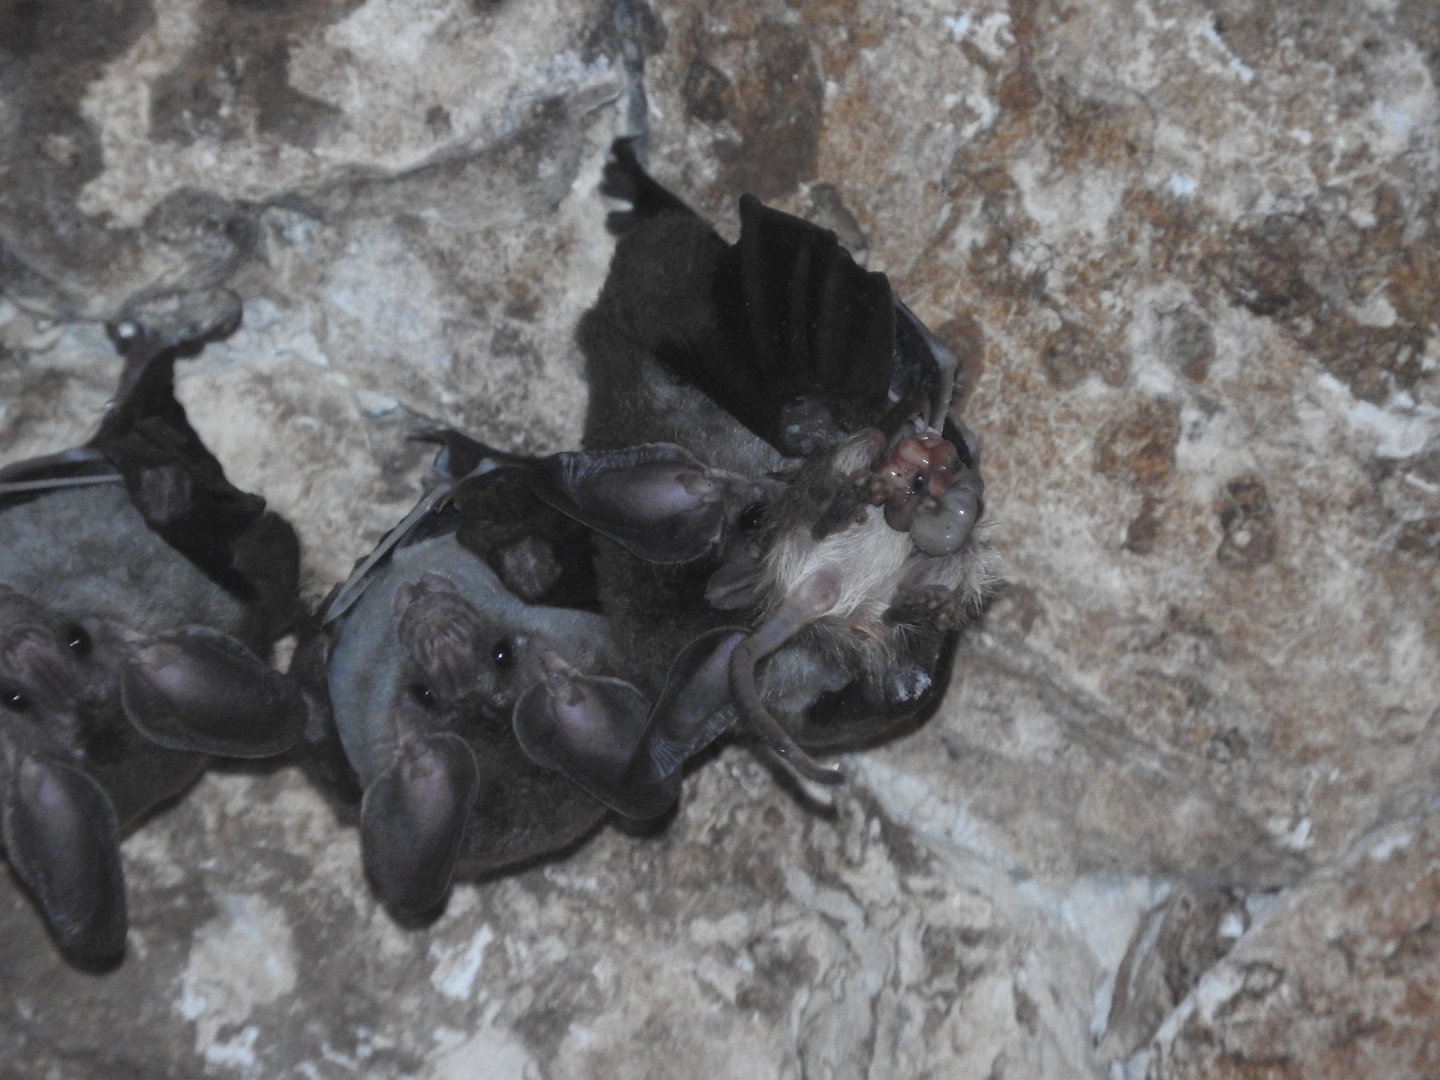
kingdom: Animalia
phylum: Chordata
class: Mammalia
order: Chiroptera
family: Phyllostomidae
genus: Chrotopterus
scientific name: Chrotopterus auritus
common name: Woolly false vampire bat
